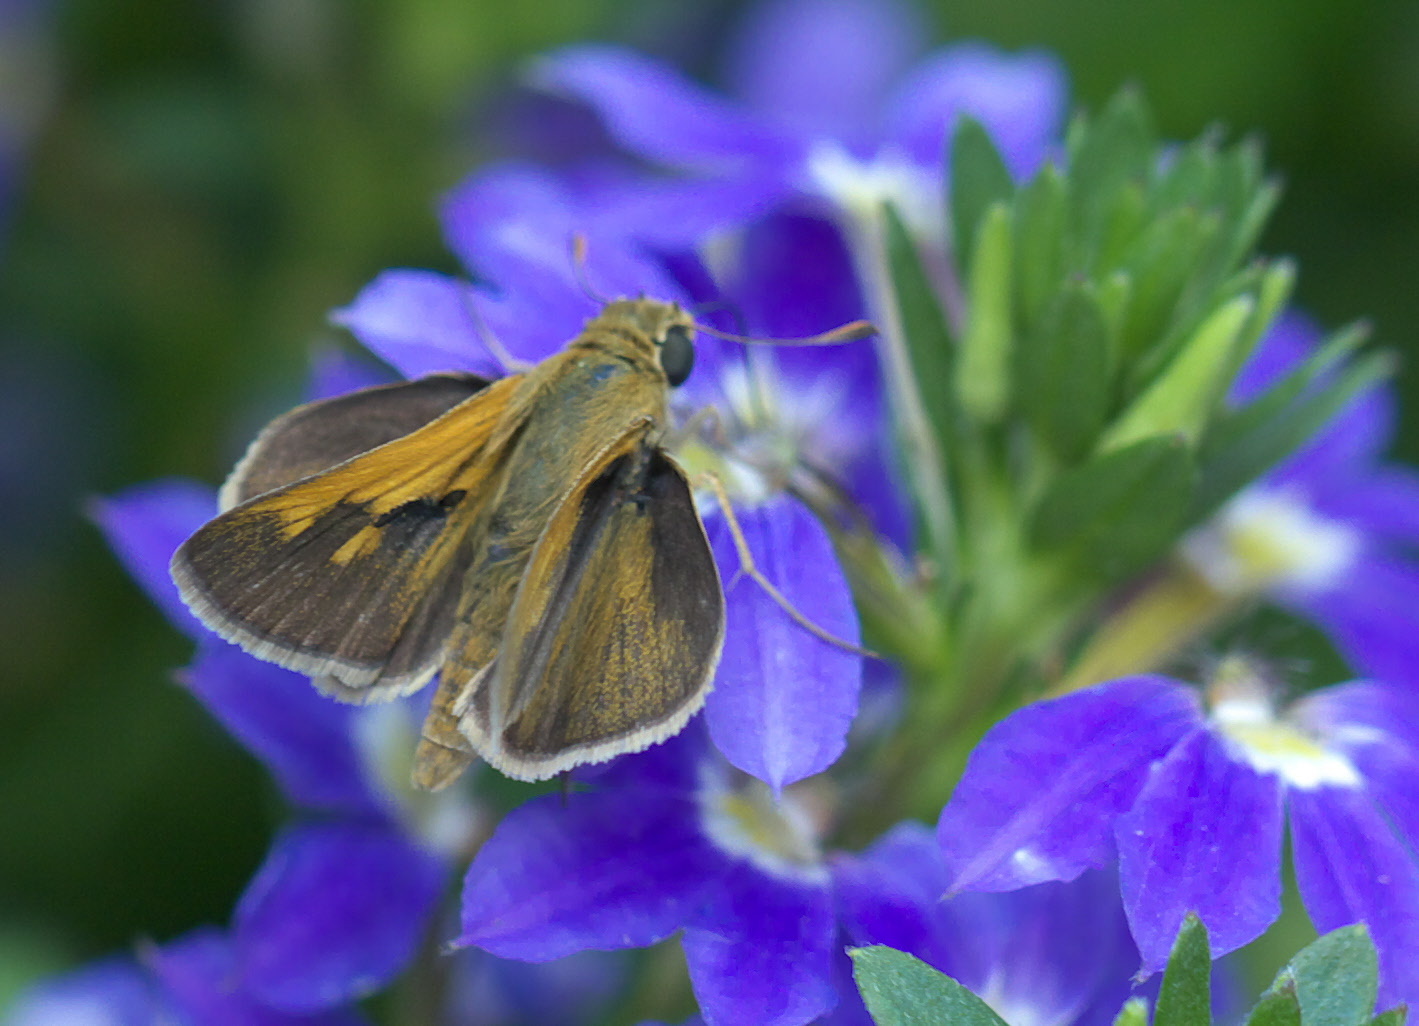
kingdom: Animalia
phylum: Arthropoda
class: Insecta
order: Lepidoptera
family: Hesperiidae
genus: Polites
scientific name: Polites otho
